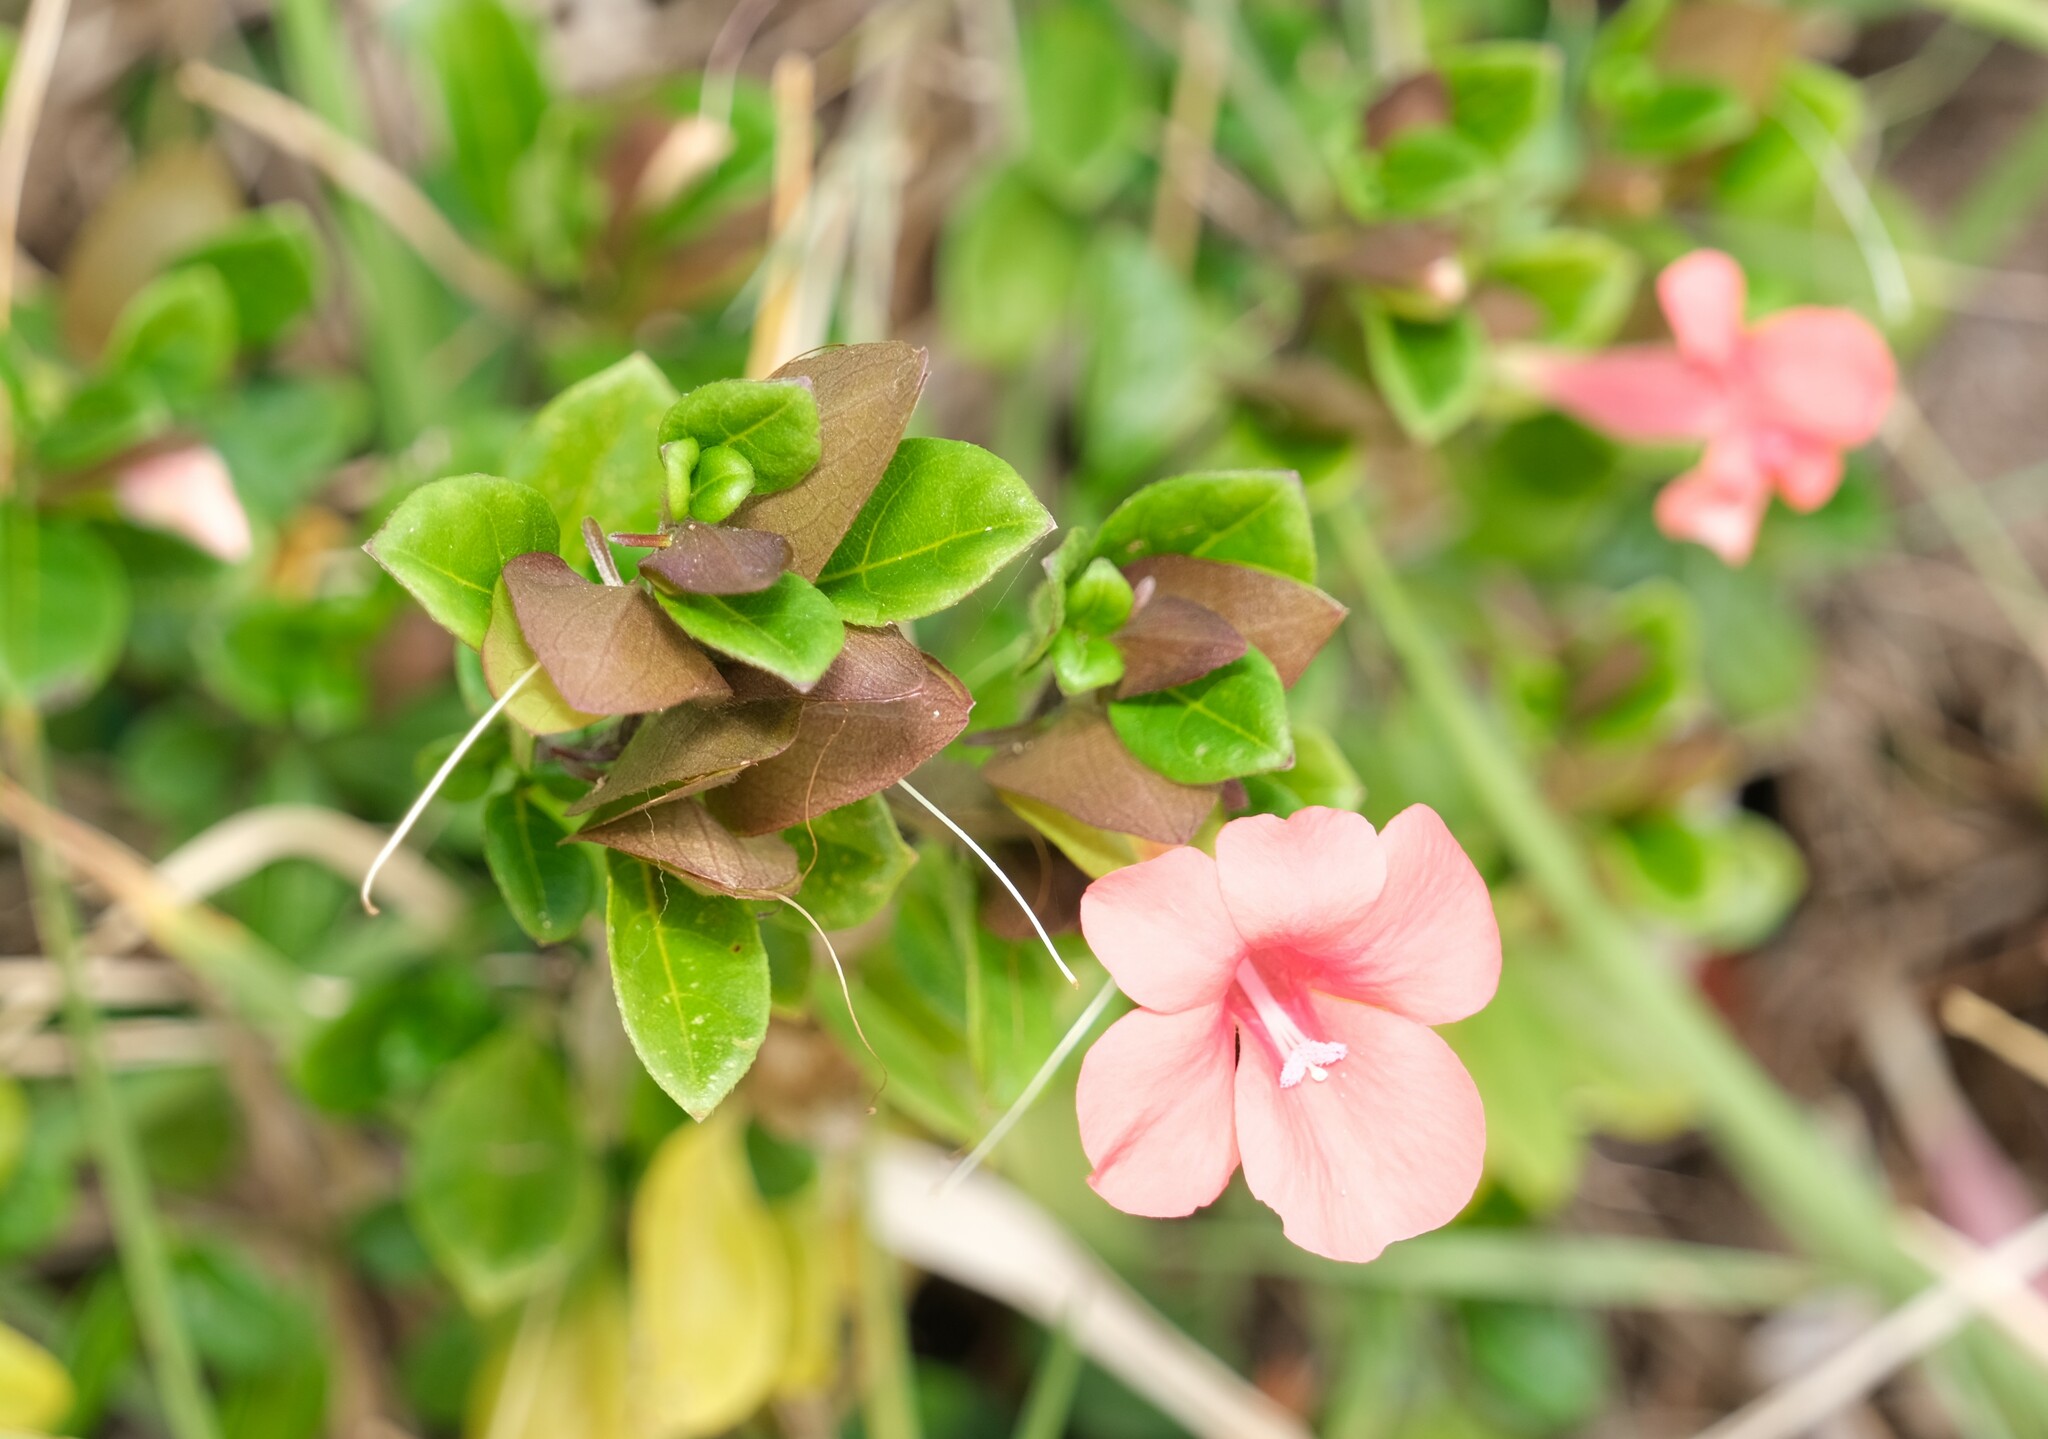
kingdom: Plantae
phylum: Tracheophyta
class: Magnoliopsida
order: Lamiales
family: Acanthaceae
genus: Barleria
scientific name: Barleria repens
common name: Pink-ruellia
